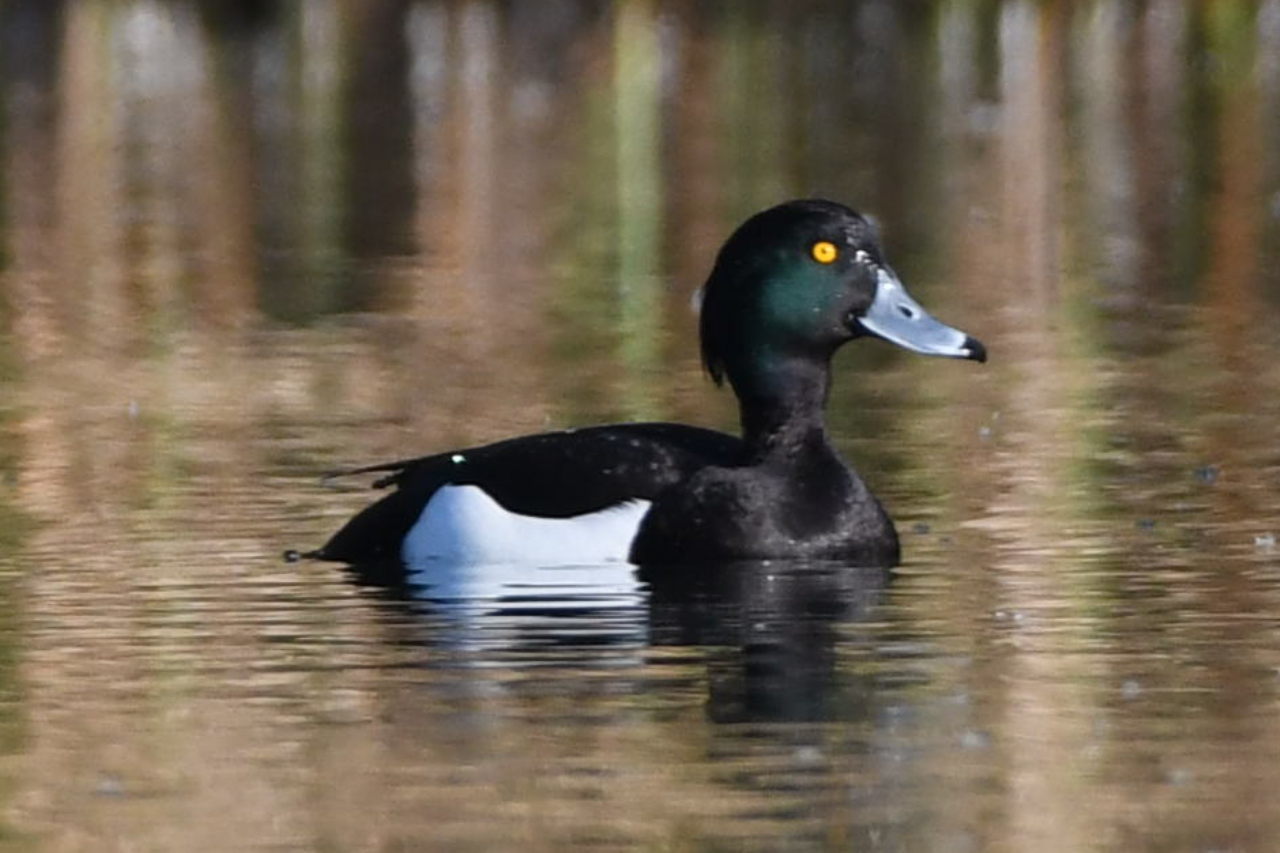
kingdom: Animalia
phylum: Chordata
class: Aves
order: Anseriformes
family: Anatidae
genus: Aythya
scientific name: Aythya fuligula
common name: Tufted duck
